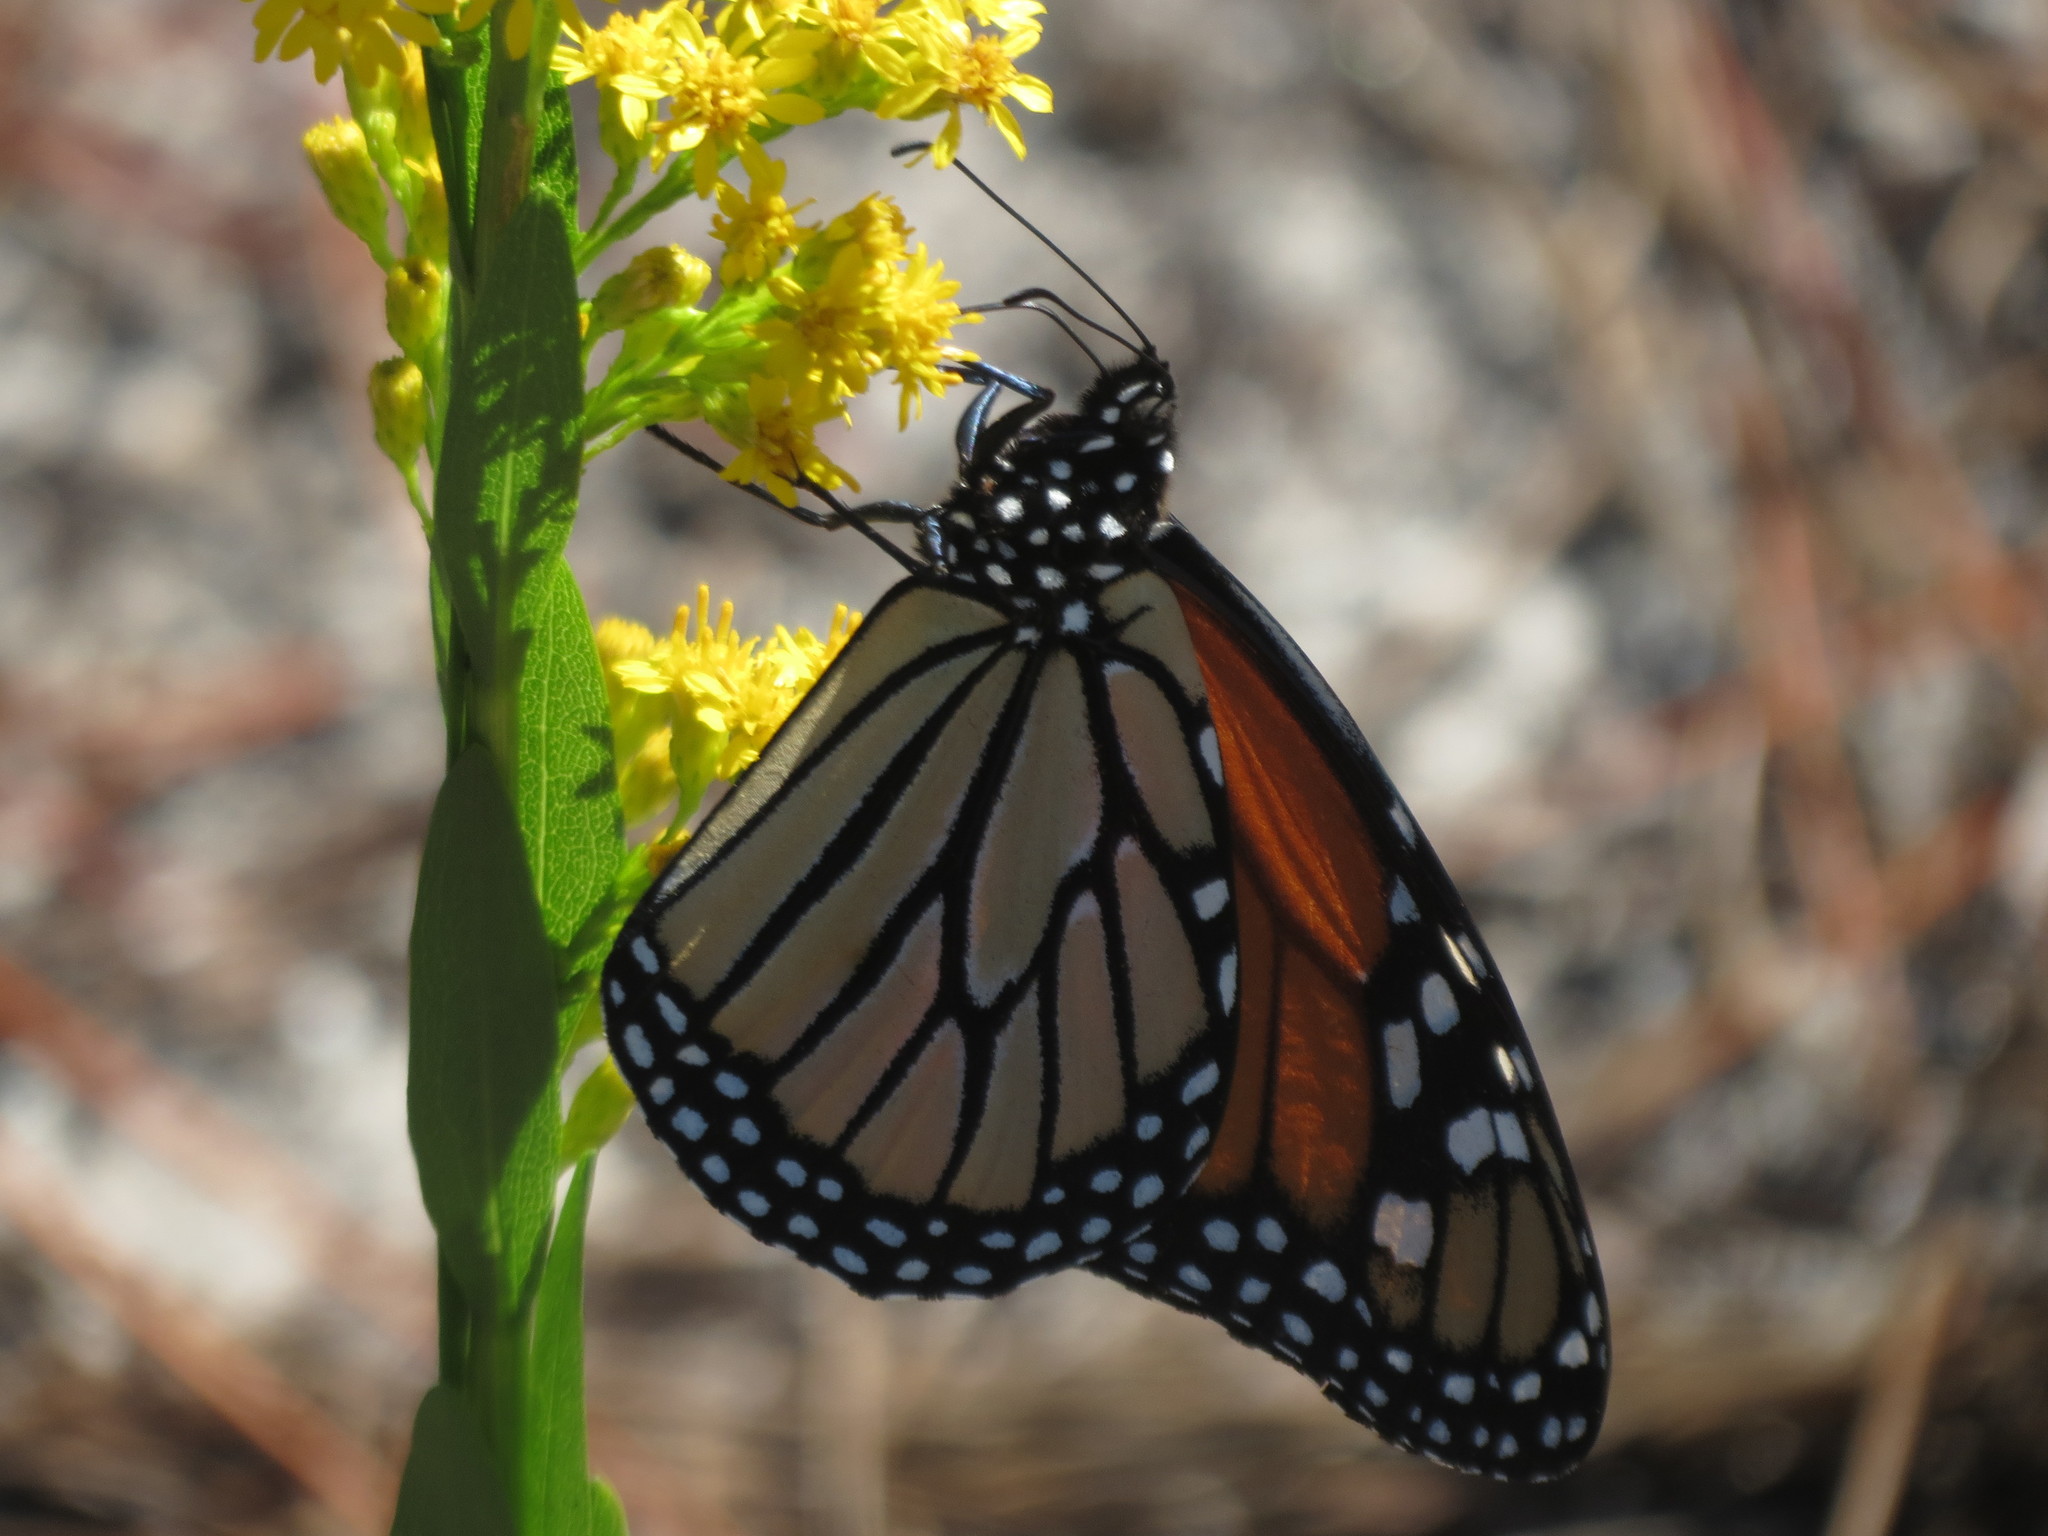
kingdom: Animalia
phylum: Arthropoda
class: Insecta
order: Lepidoptera
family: Nymphalidae
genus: Danaus
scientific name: Danaus plexippus
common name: Monarch
